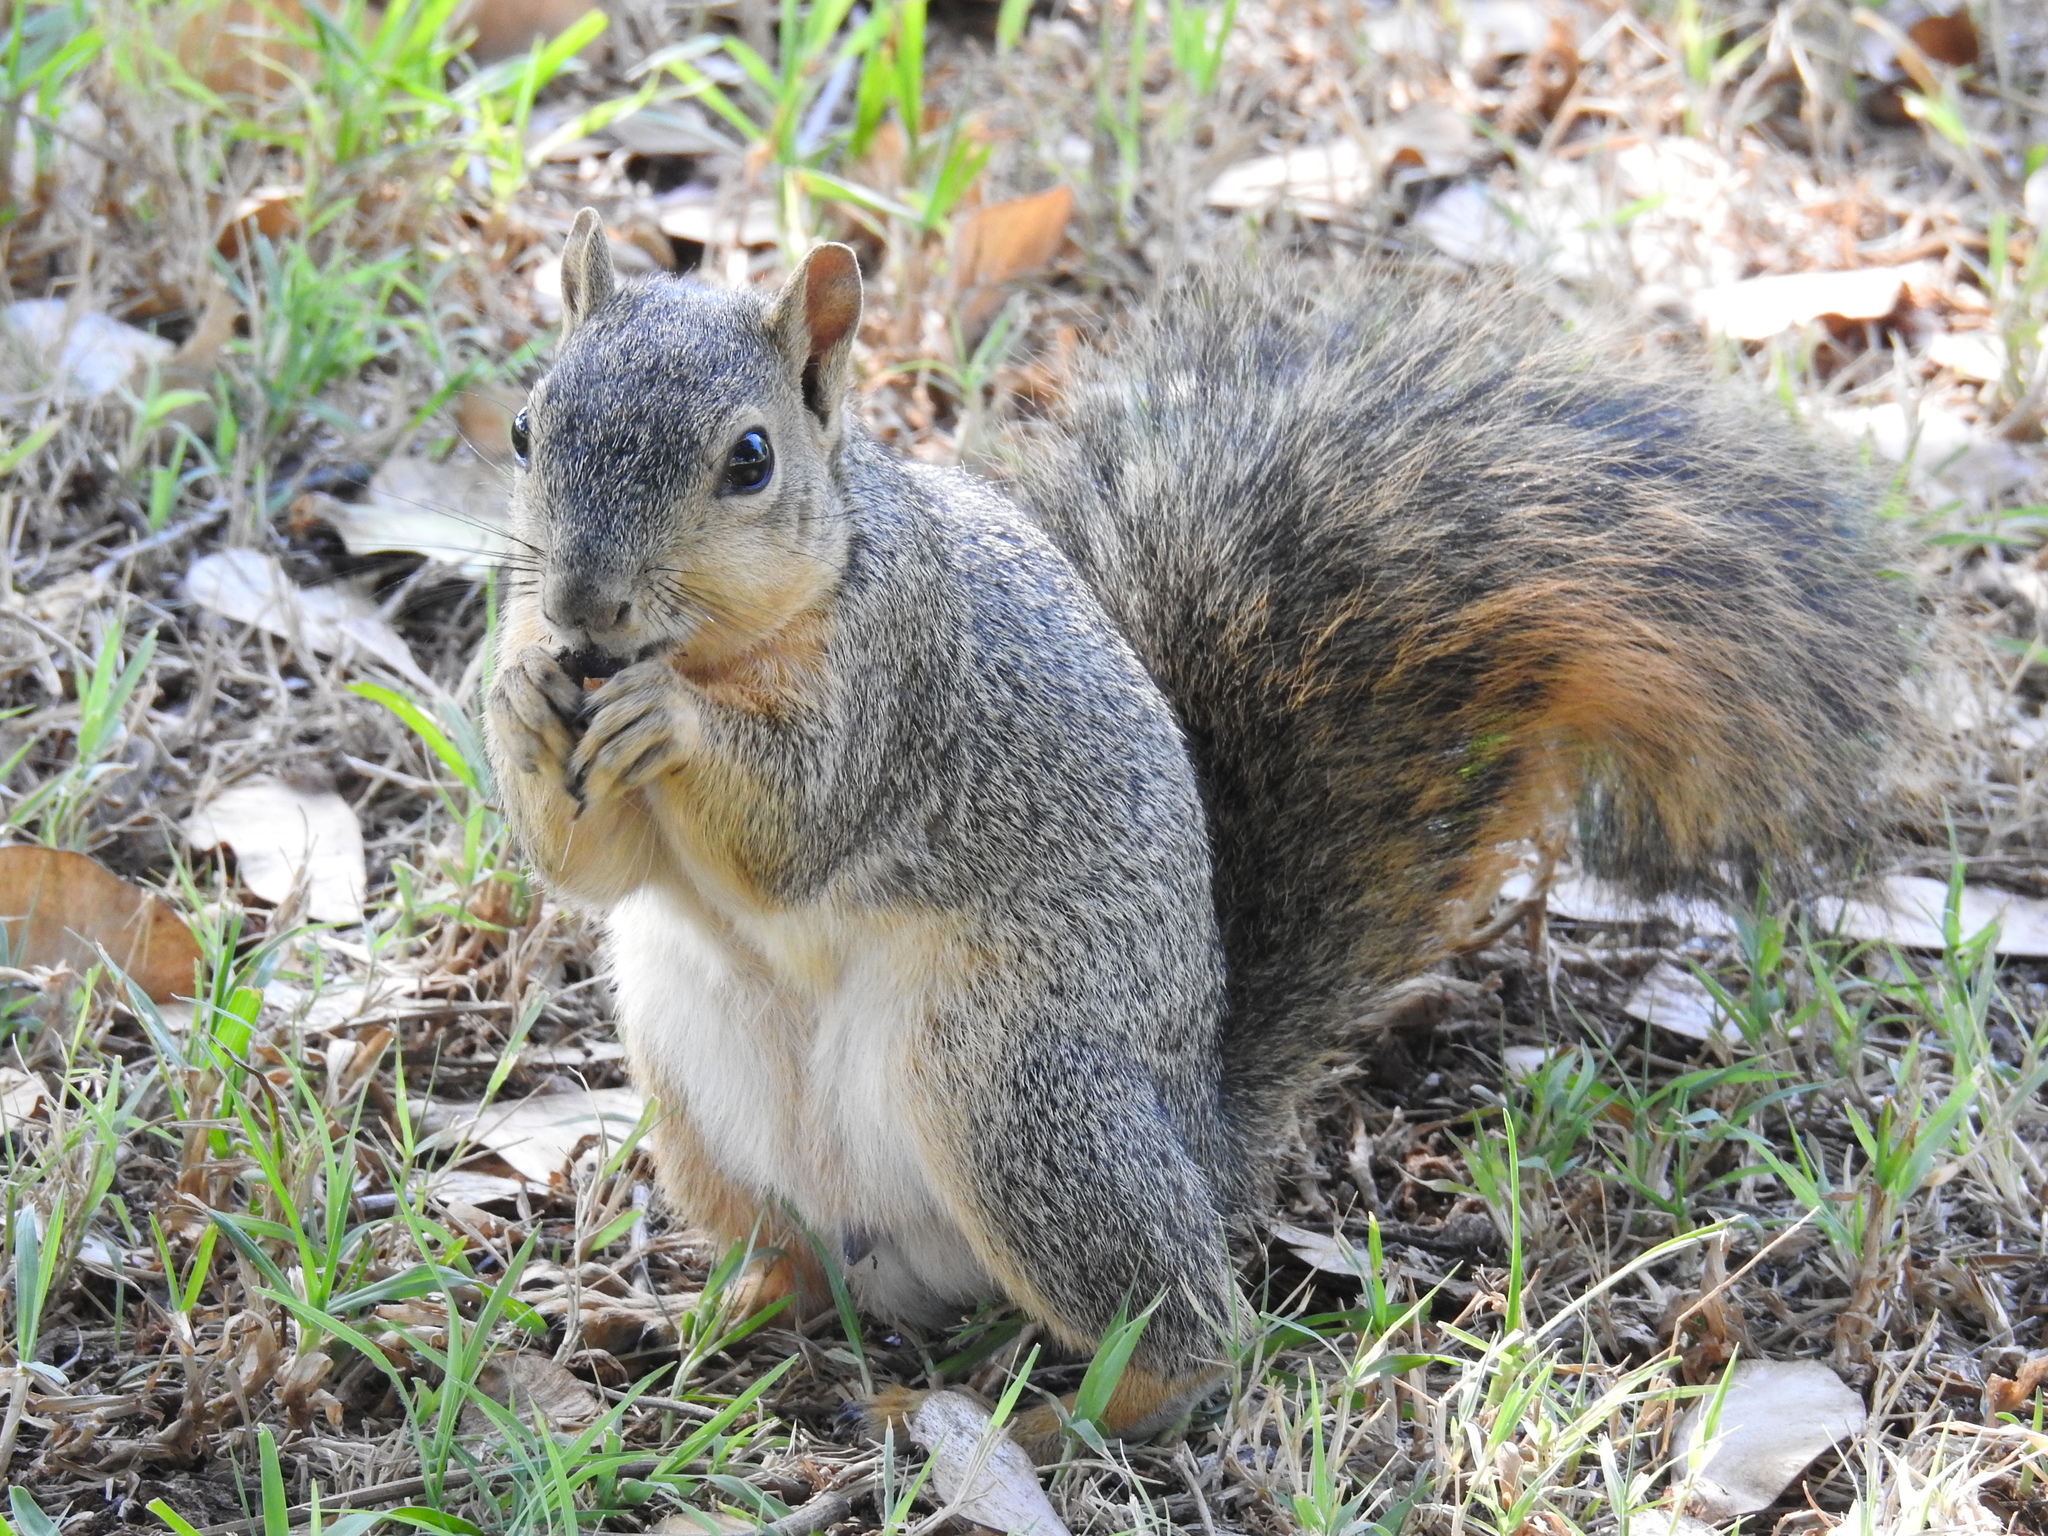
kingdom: Animalia
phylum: Chordata
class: Mammalia
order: Rodentia
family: Sciuridae
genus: Sciurus
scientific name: Sciurus niger
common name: Fox squirrel
